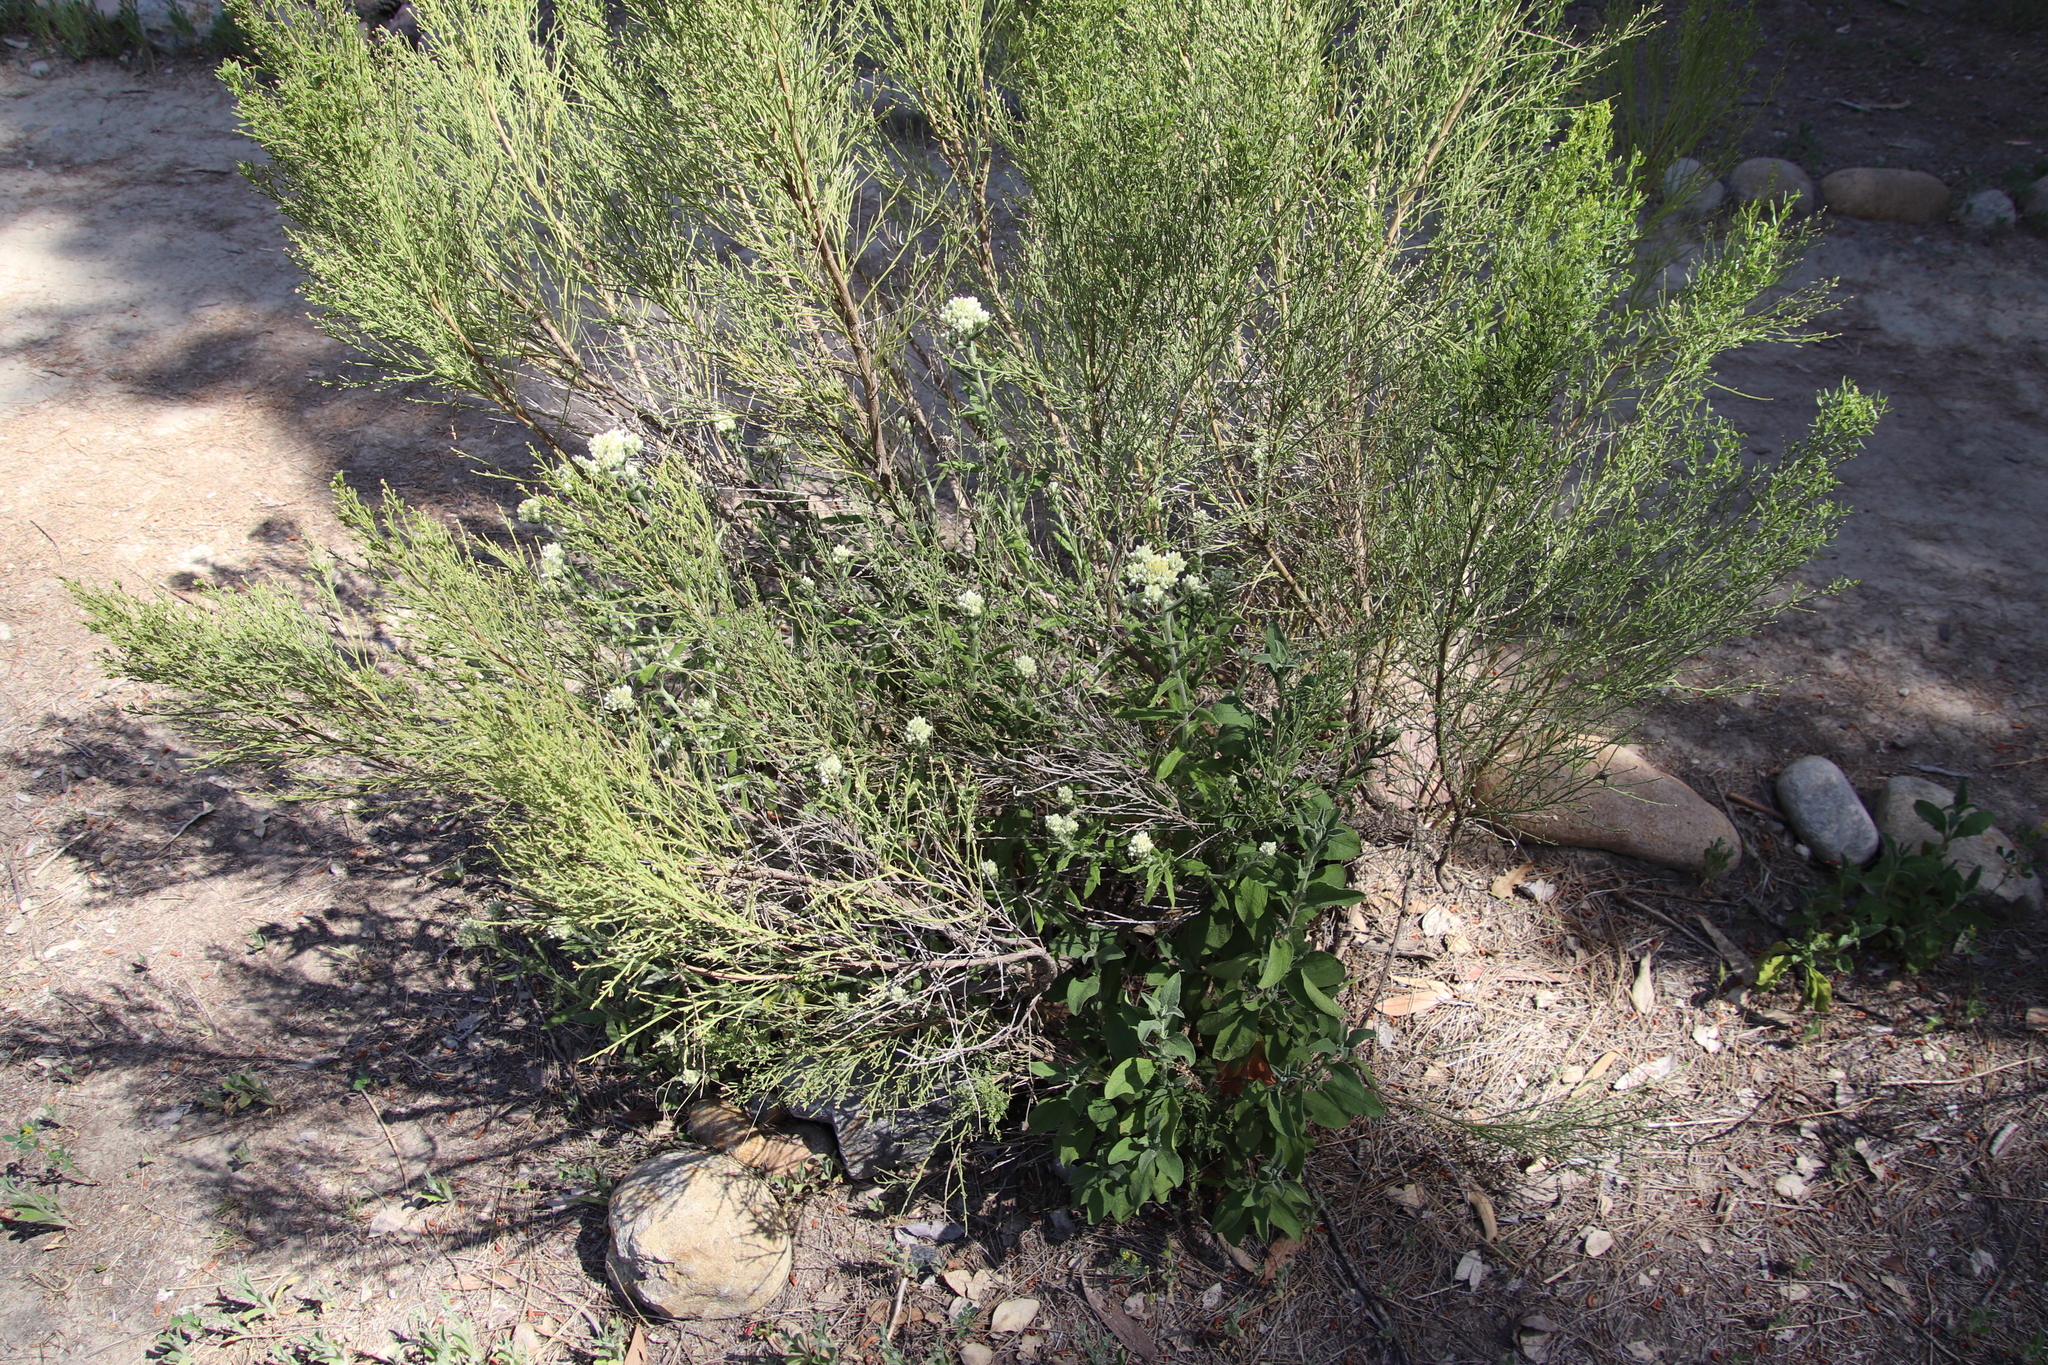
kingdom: Plantae
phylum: Tracheophyta
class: Magnoliopsida
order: Asterales
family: Asteraceae
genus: Pseudognaphalium
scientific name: Pseudognaphalium biolettii
